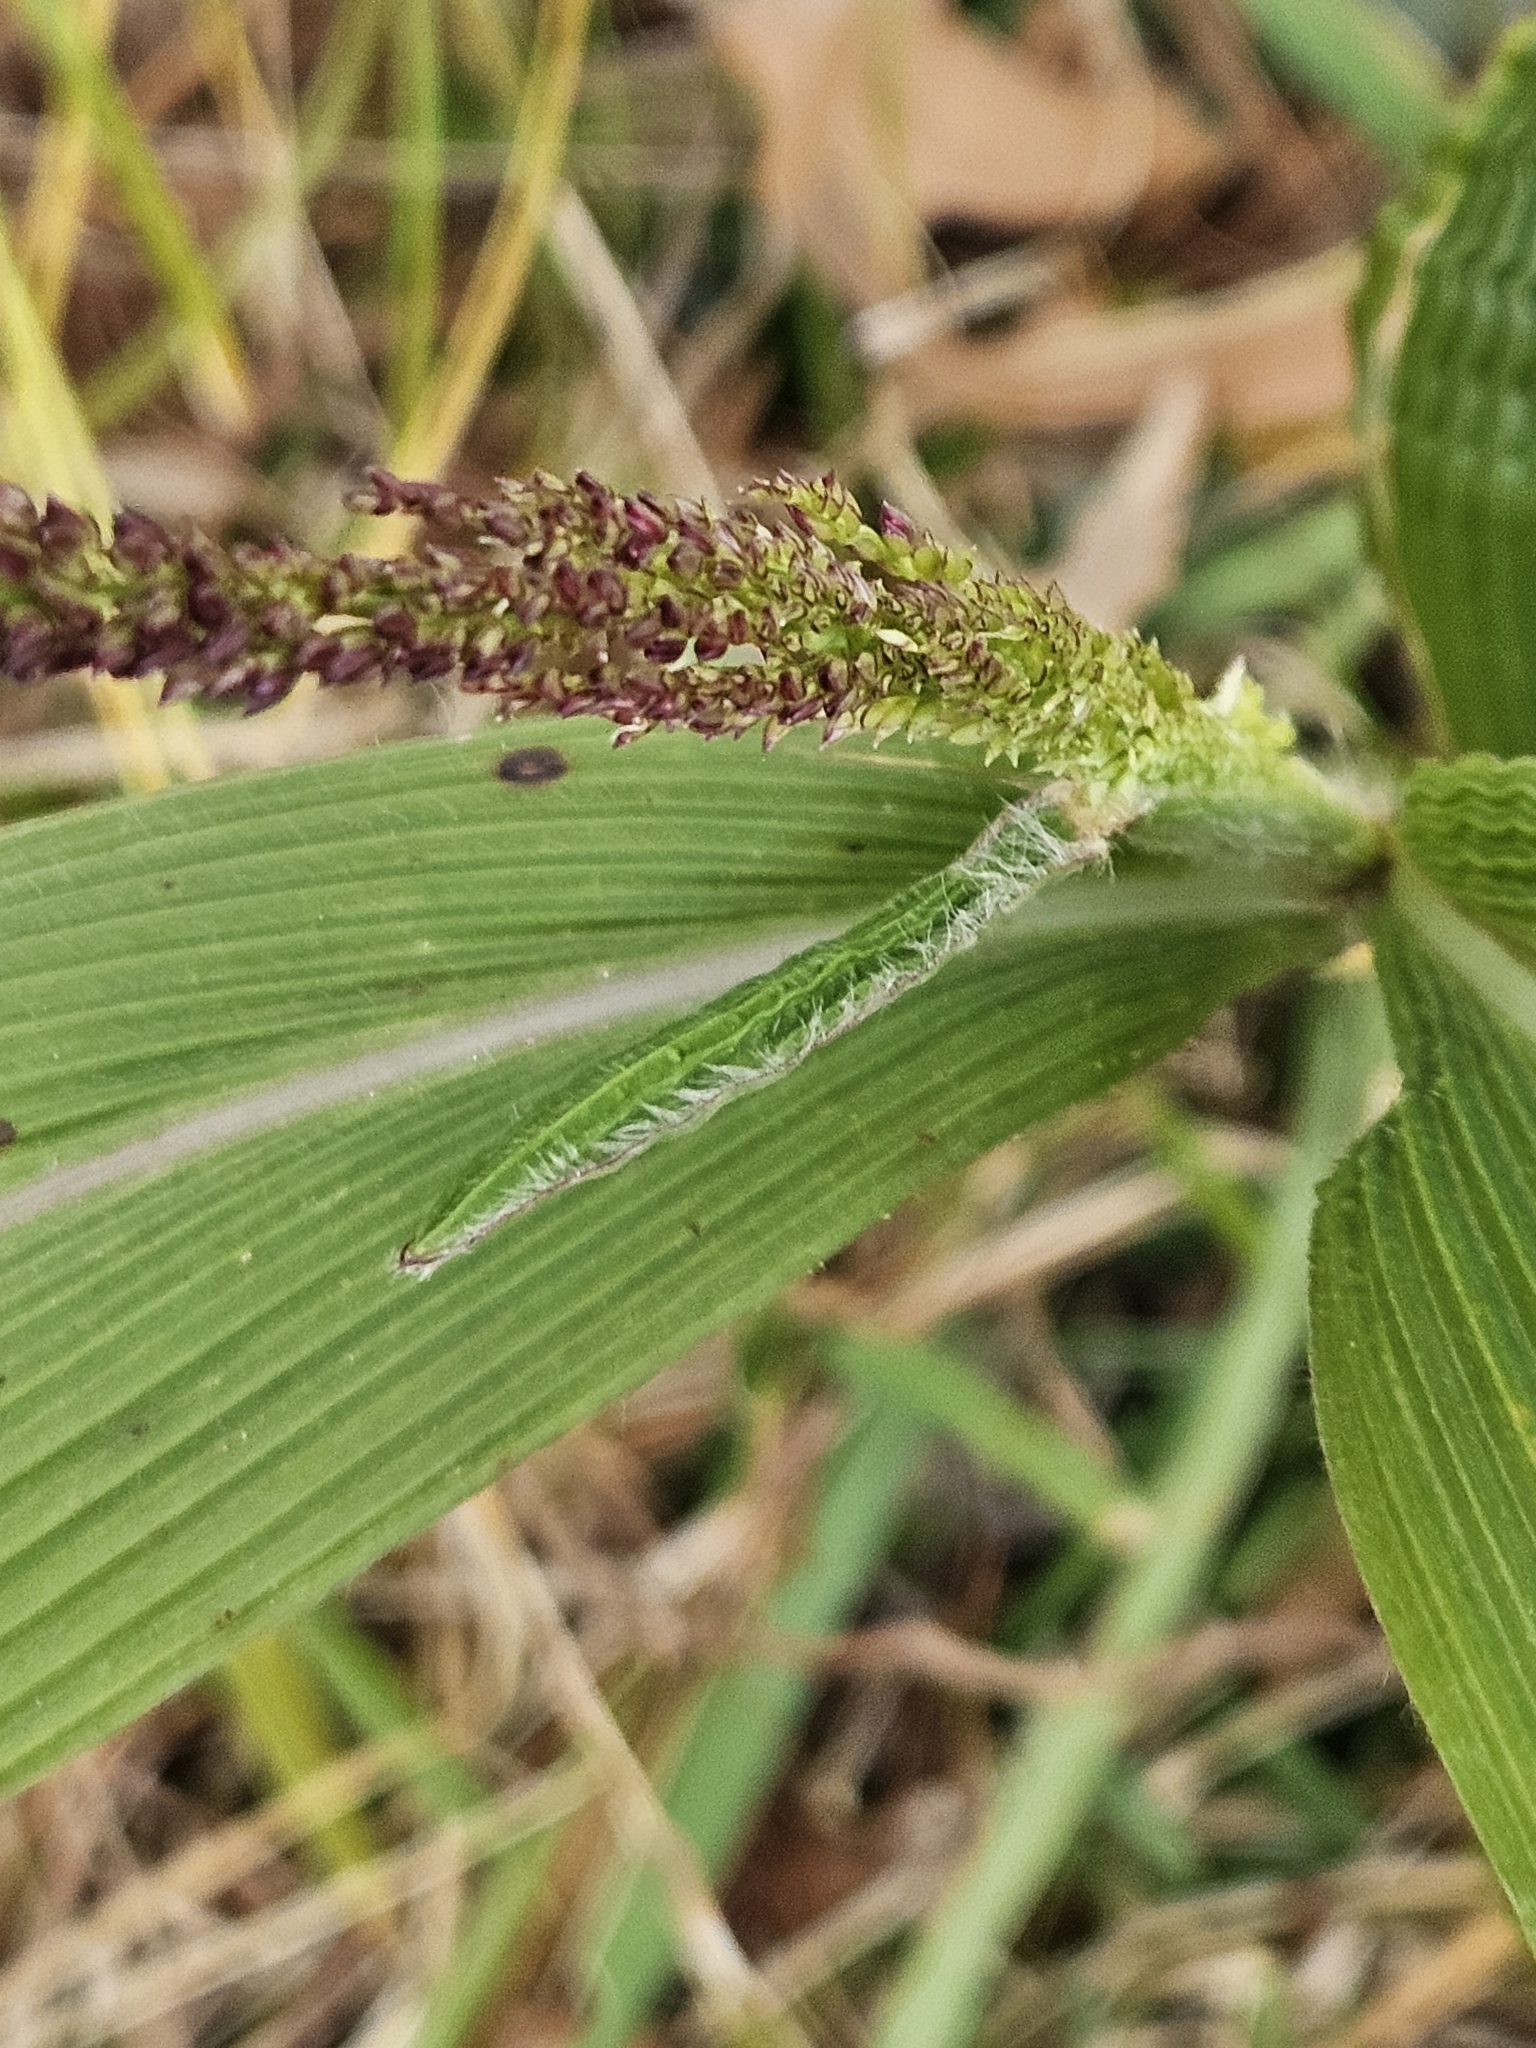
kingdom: Plantae
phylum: Tracheophyta
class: Liliopsida
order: Poales
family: Poaceae
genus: Setaria
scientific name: Setaria palmifolia
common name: Broadleaved bristlegrass
